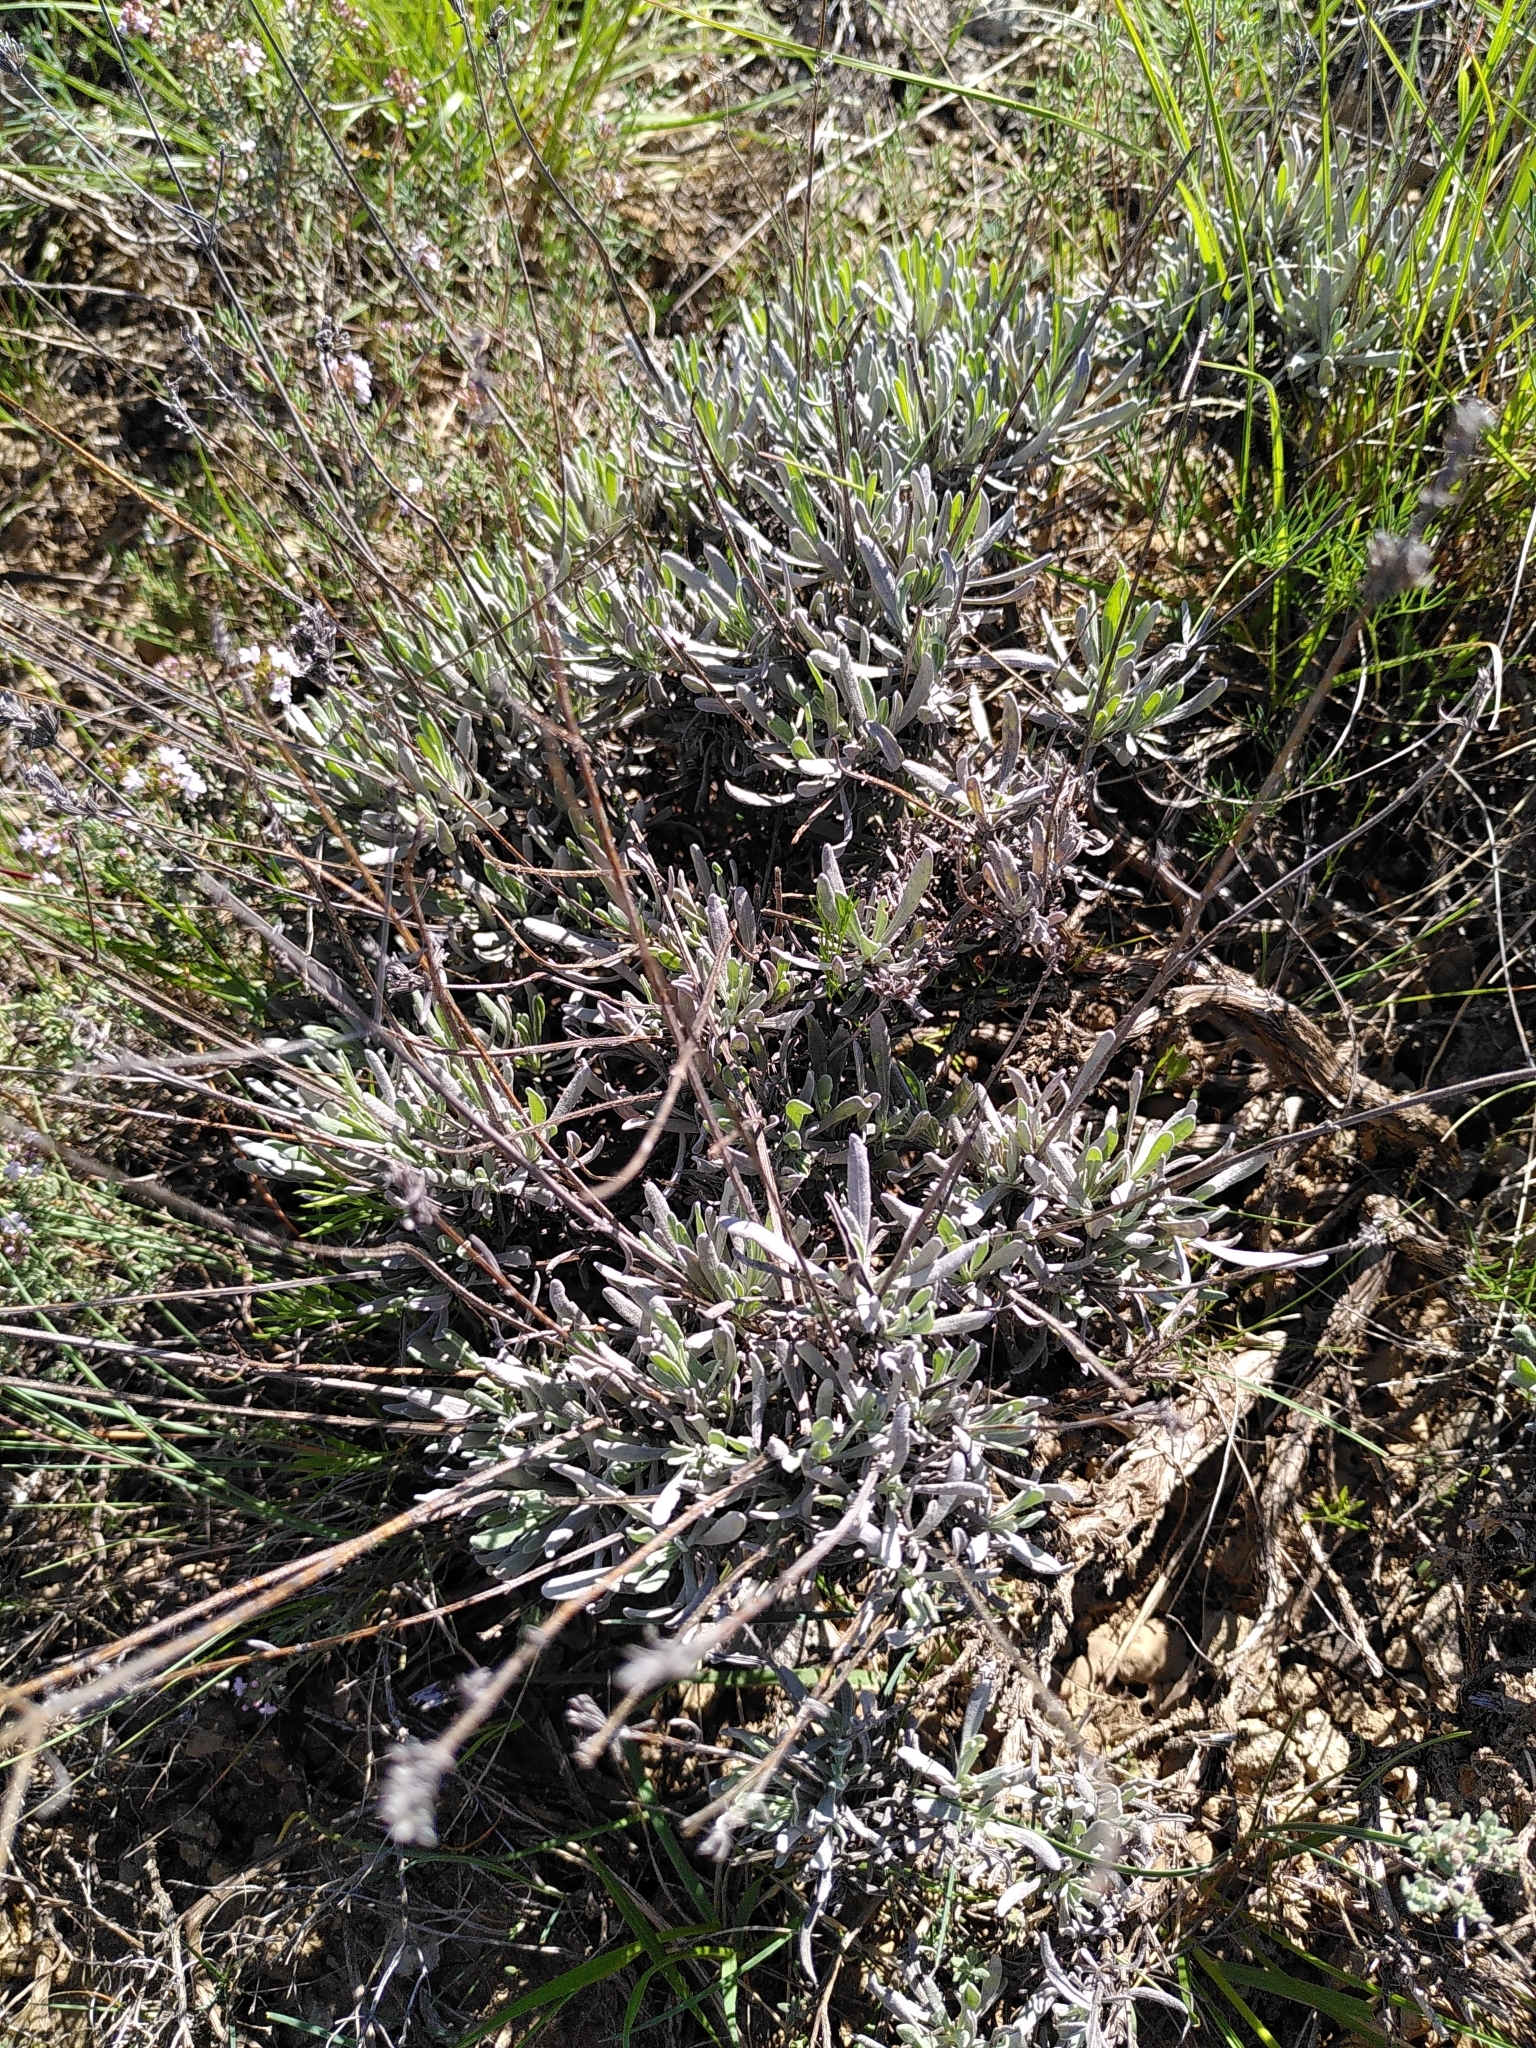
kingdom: Plantae
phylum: Tracheophyta
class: Magnoliopsida
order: Lamiales
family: Lamiaceae
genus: Lavandula
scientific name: Lavandula latifolia
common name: Spike lavendar
